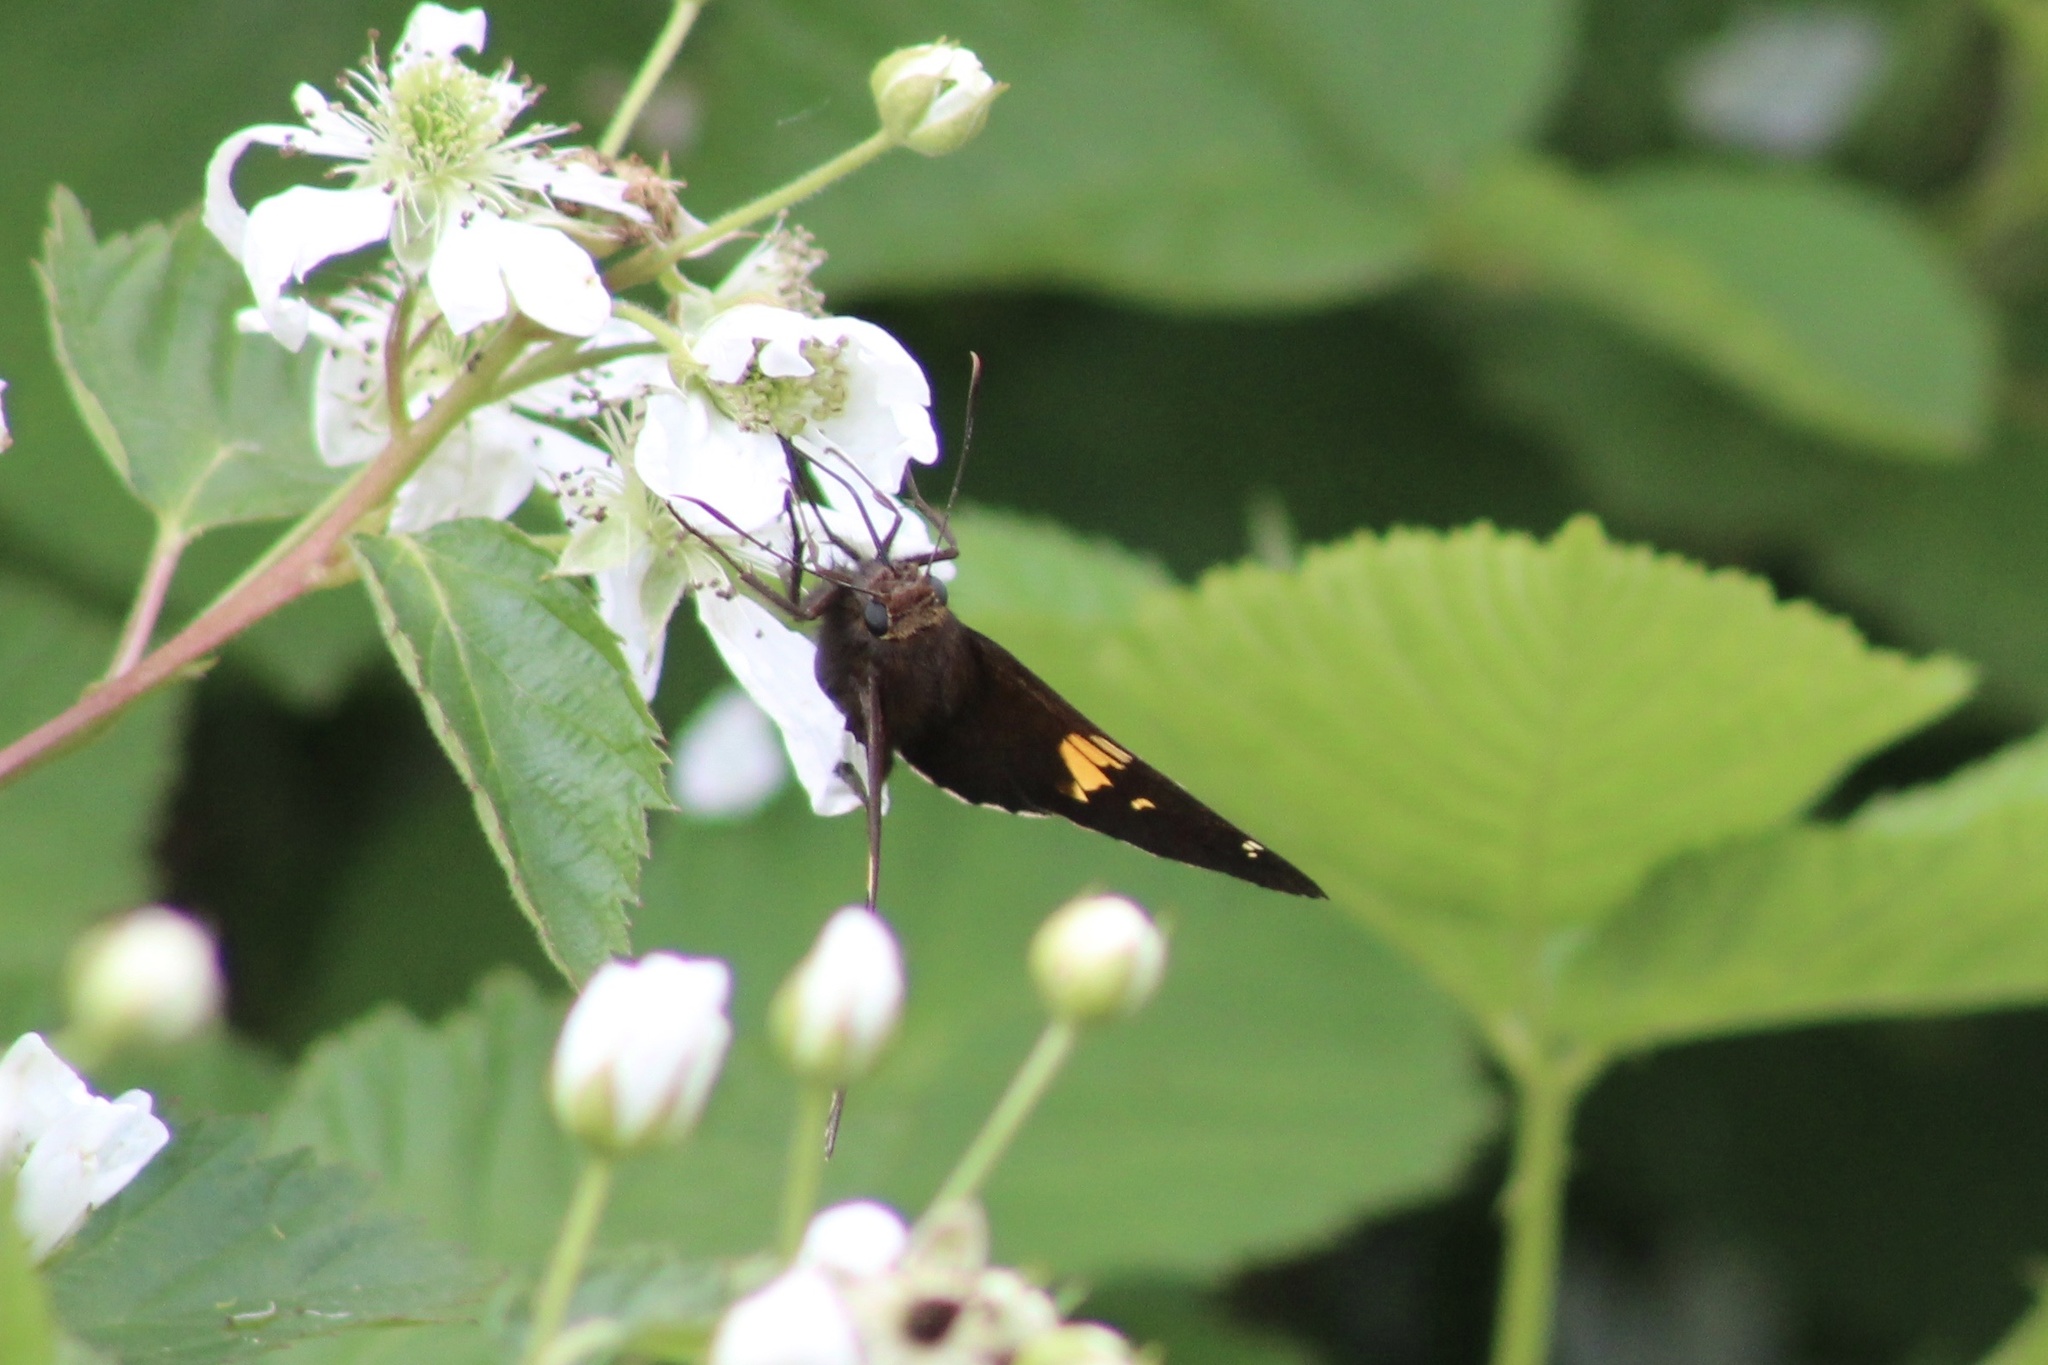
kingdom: Animalia
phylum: Arthropoda
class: Insecta
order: Lepidoptera
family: Hesperiidae
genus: Epargyreus
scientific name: Epargyreus clarus
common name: Silver-spotted skipper
